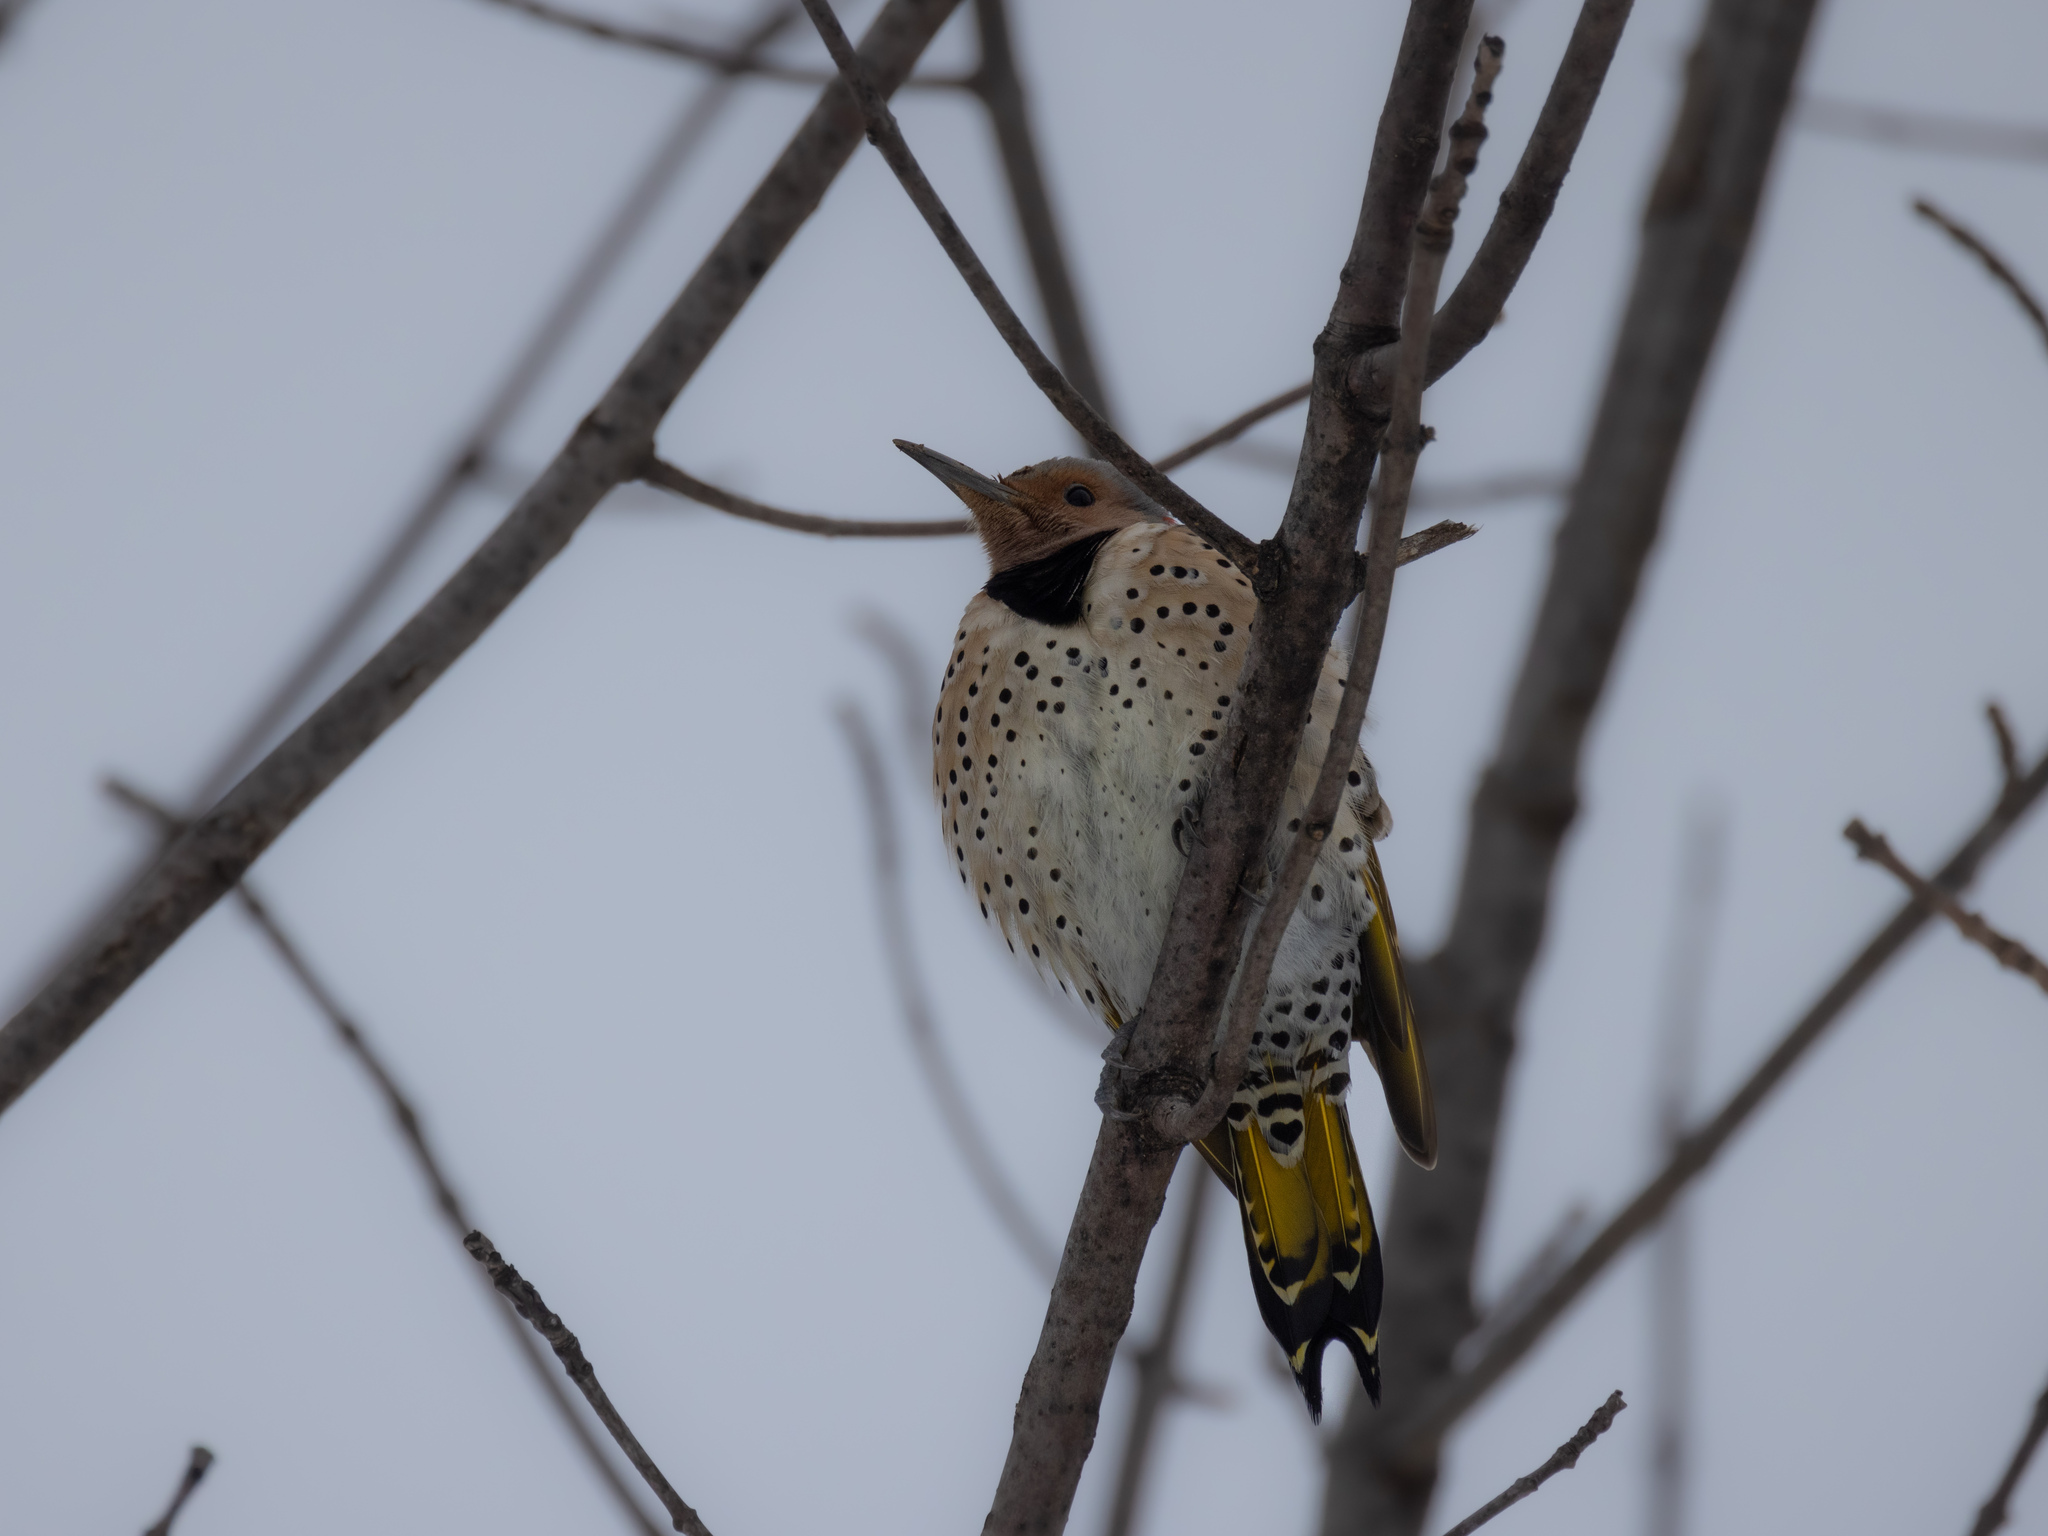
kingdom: Animalia
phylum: Chordata
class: Aves
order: Piciformes
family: Picidae
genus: Colaptes
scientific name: Colaptes auratus
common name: Northern flicker
